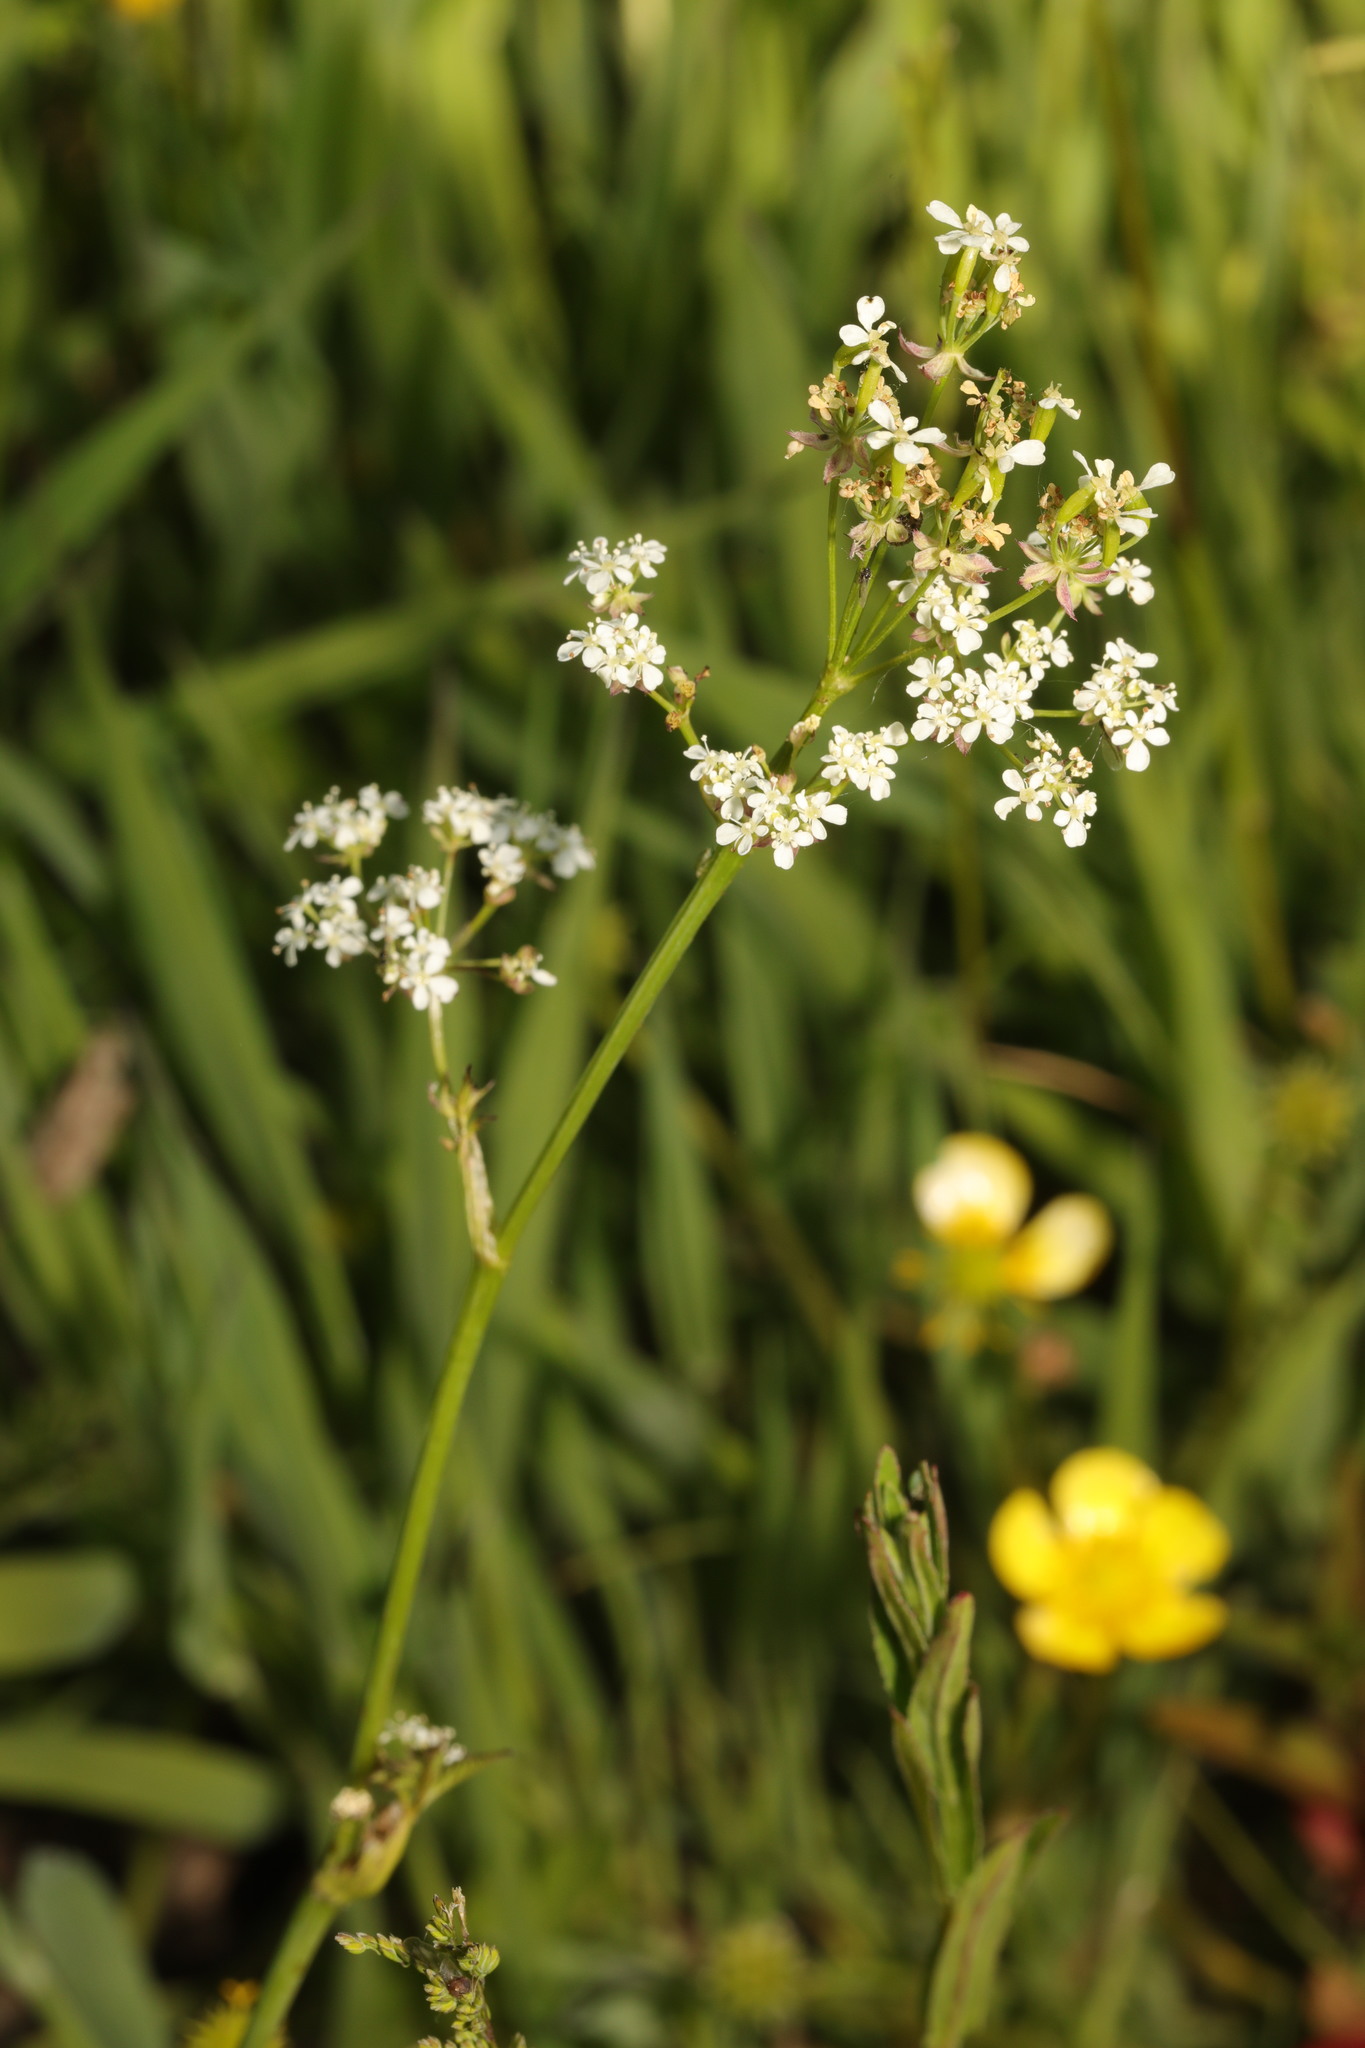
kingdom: Plantae
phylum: Tracheophyta
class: Magnoliopsida
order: Apiales
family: Apiaceae
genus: Conopodium
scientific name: Conopodium majus
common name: Pignut
